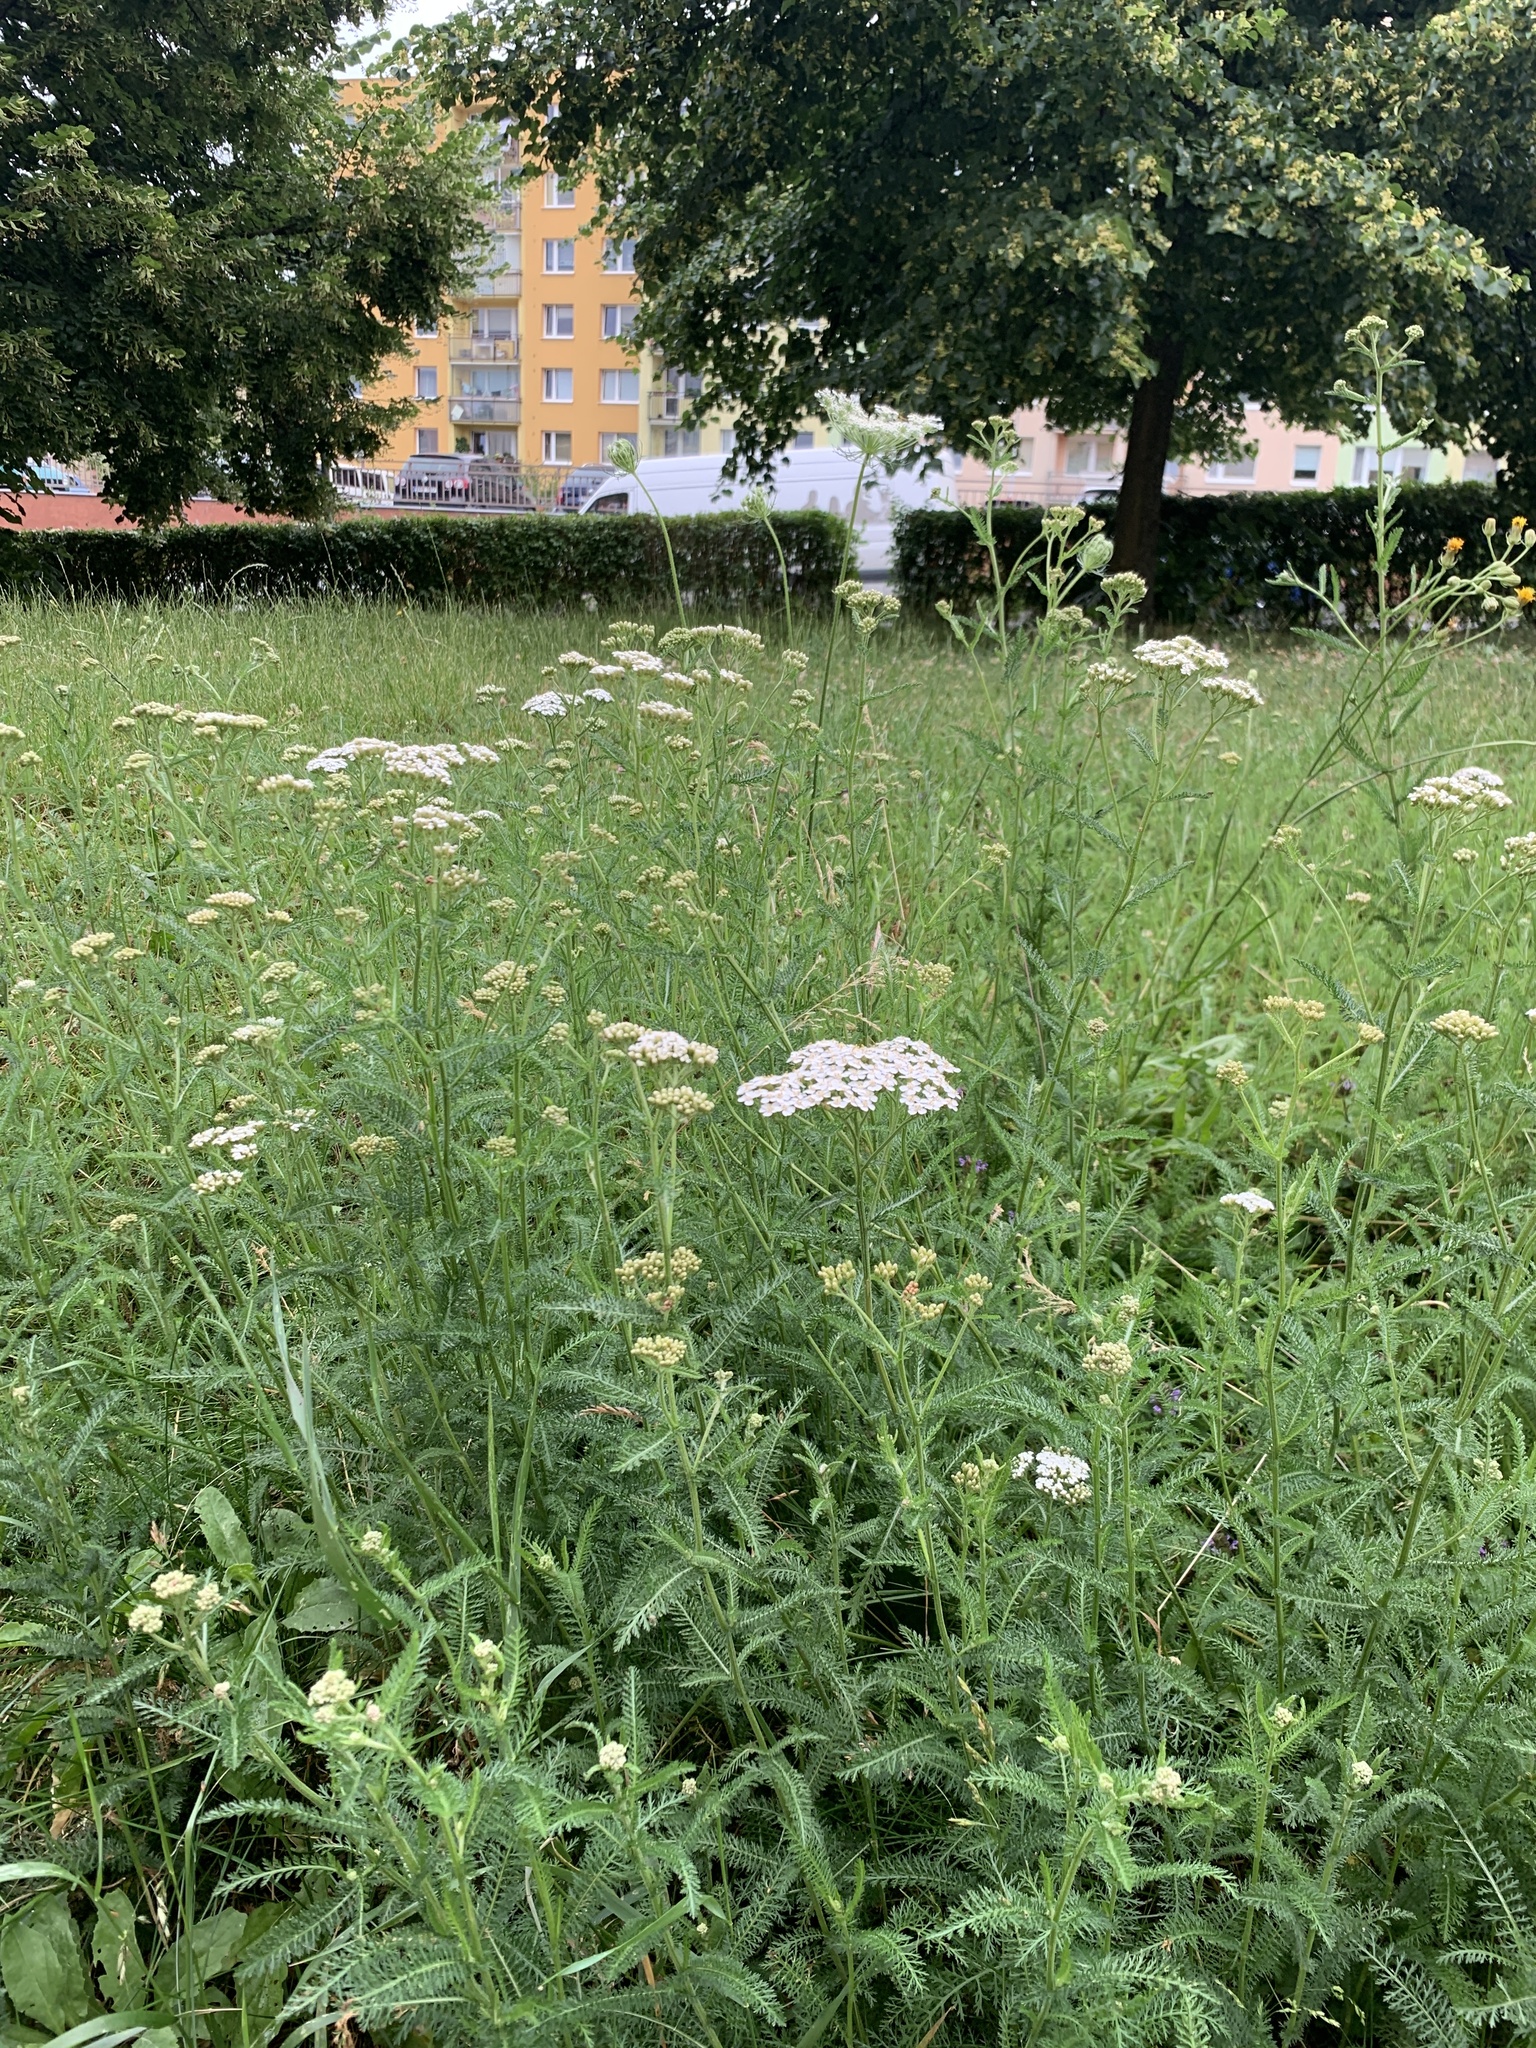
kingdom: Plantae
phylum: Tracheophyta
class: Magnoliopsida
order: Asterales
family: Asteraceae
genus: Achillea
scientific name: Achillea millefolium
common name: Yarrow
